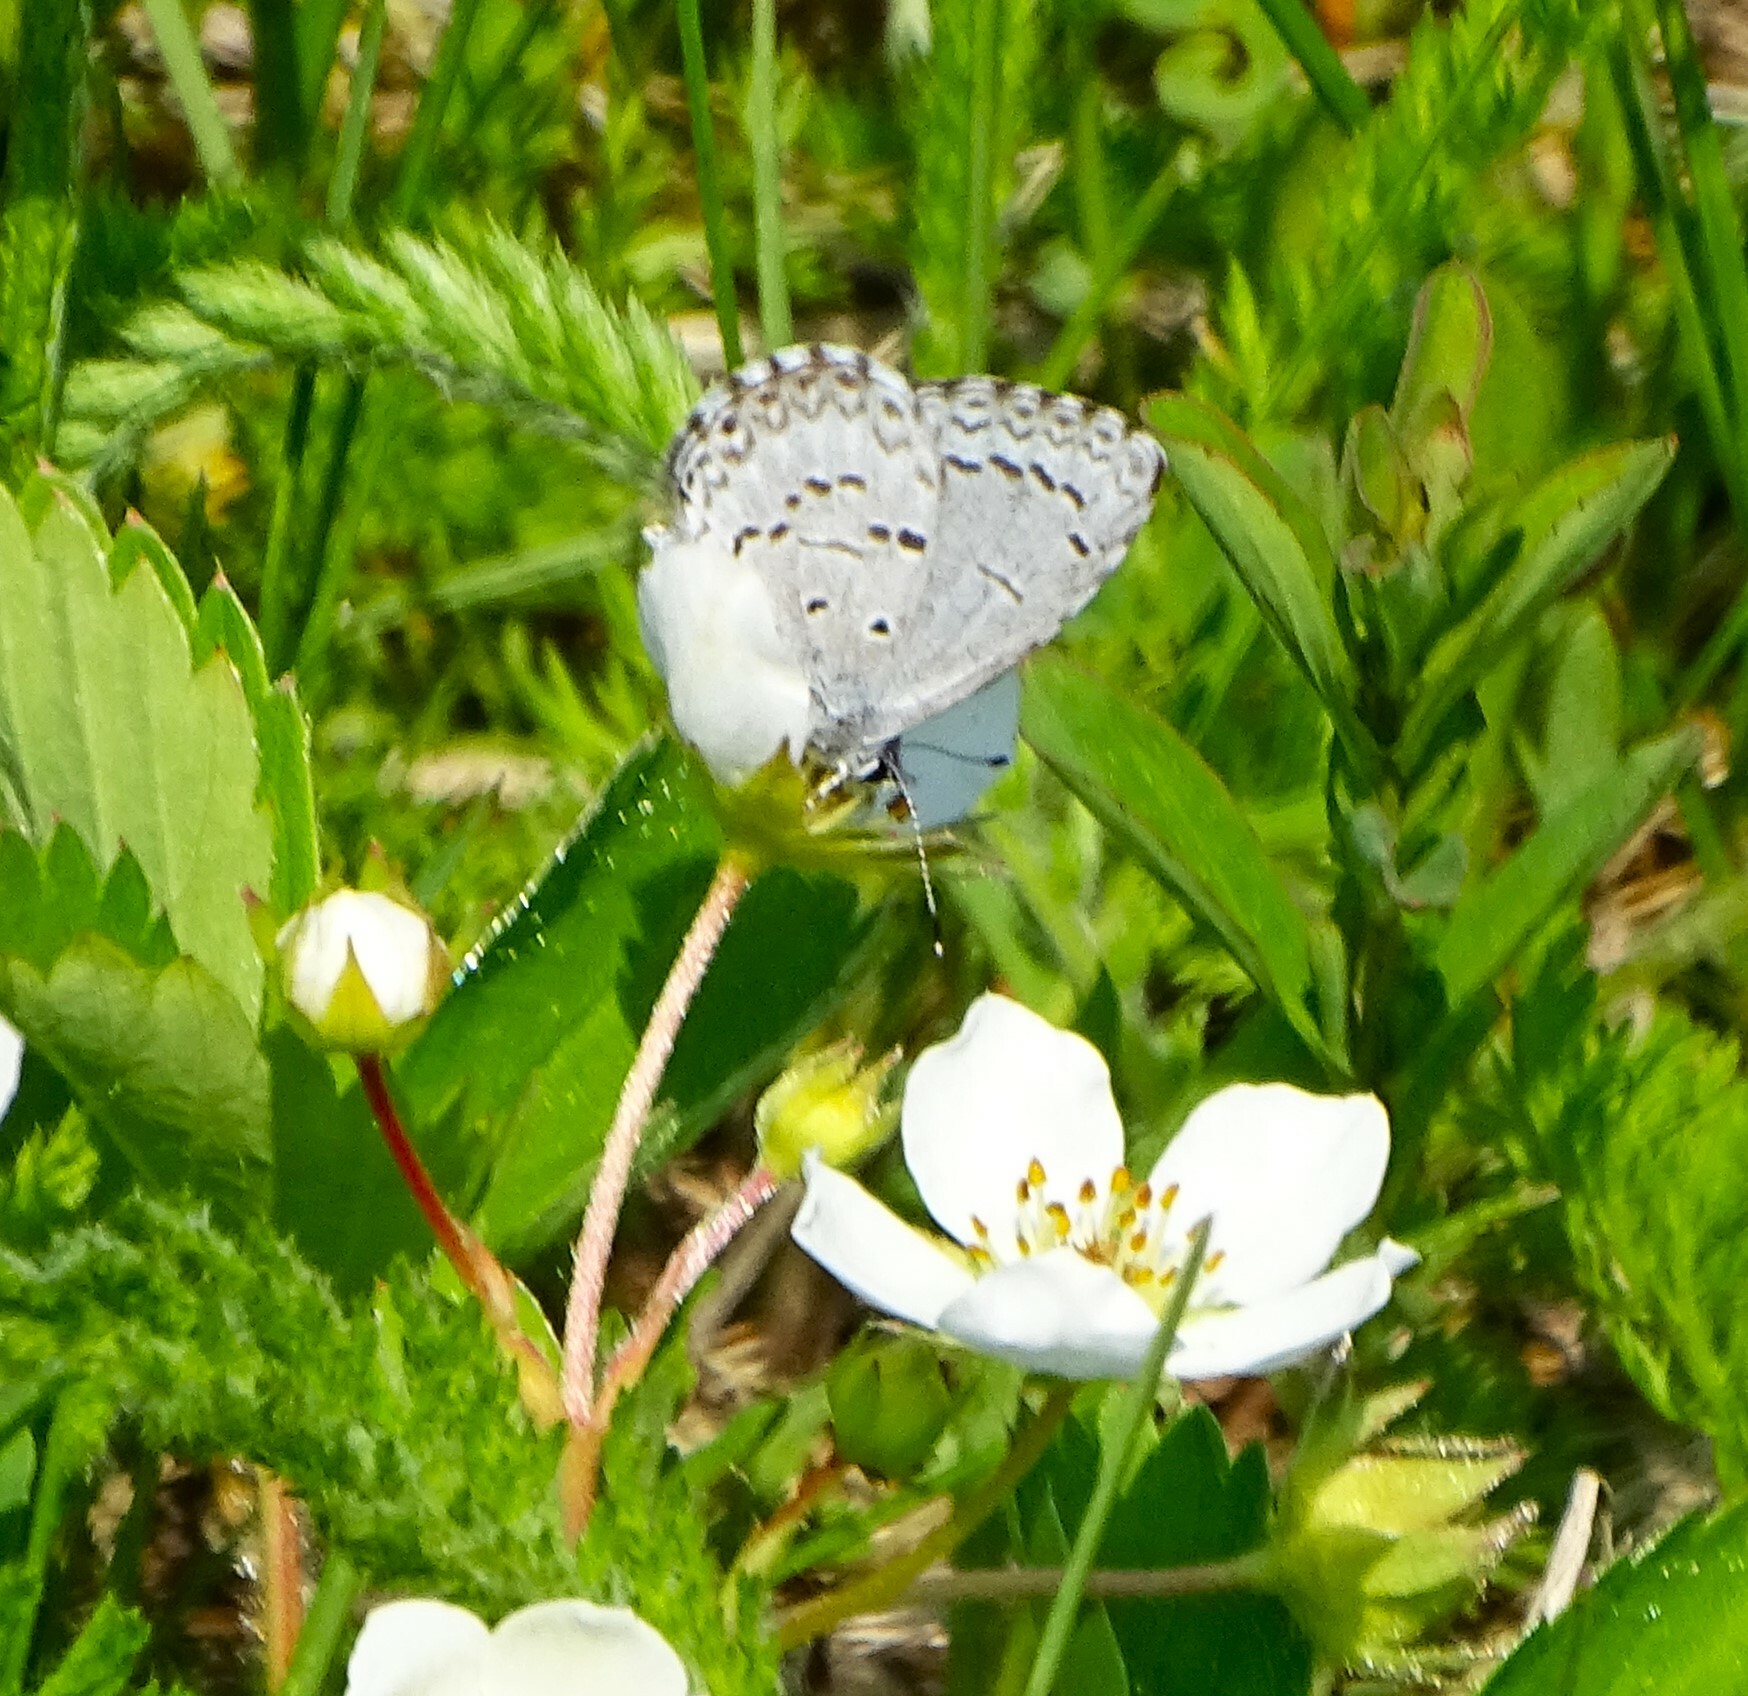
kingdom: Animalia
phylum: Arthropoda
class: Insecta
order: Lepidoptera
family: Lycaenidae
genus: Celastrina
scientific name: Celastrina lucia
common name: Lucia azure
